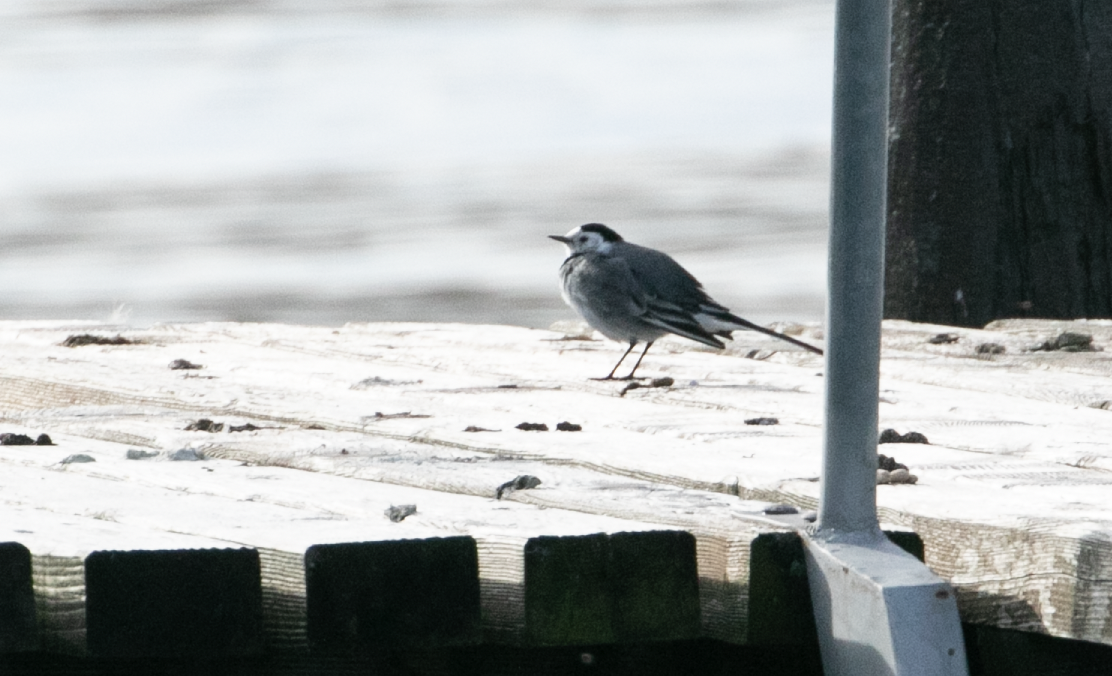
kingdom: Animalia
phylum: Chordata
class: Aves
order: Passeriformes
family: Motacillidae
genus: Motacilla
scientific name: Motacilla alba
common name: White wagtail
